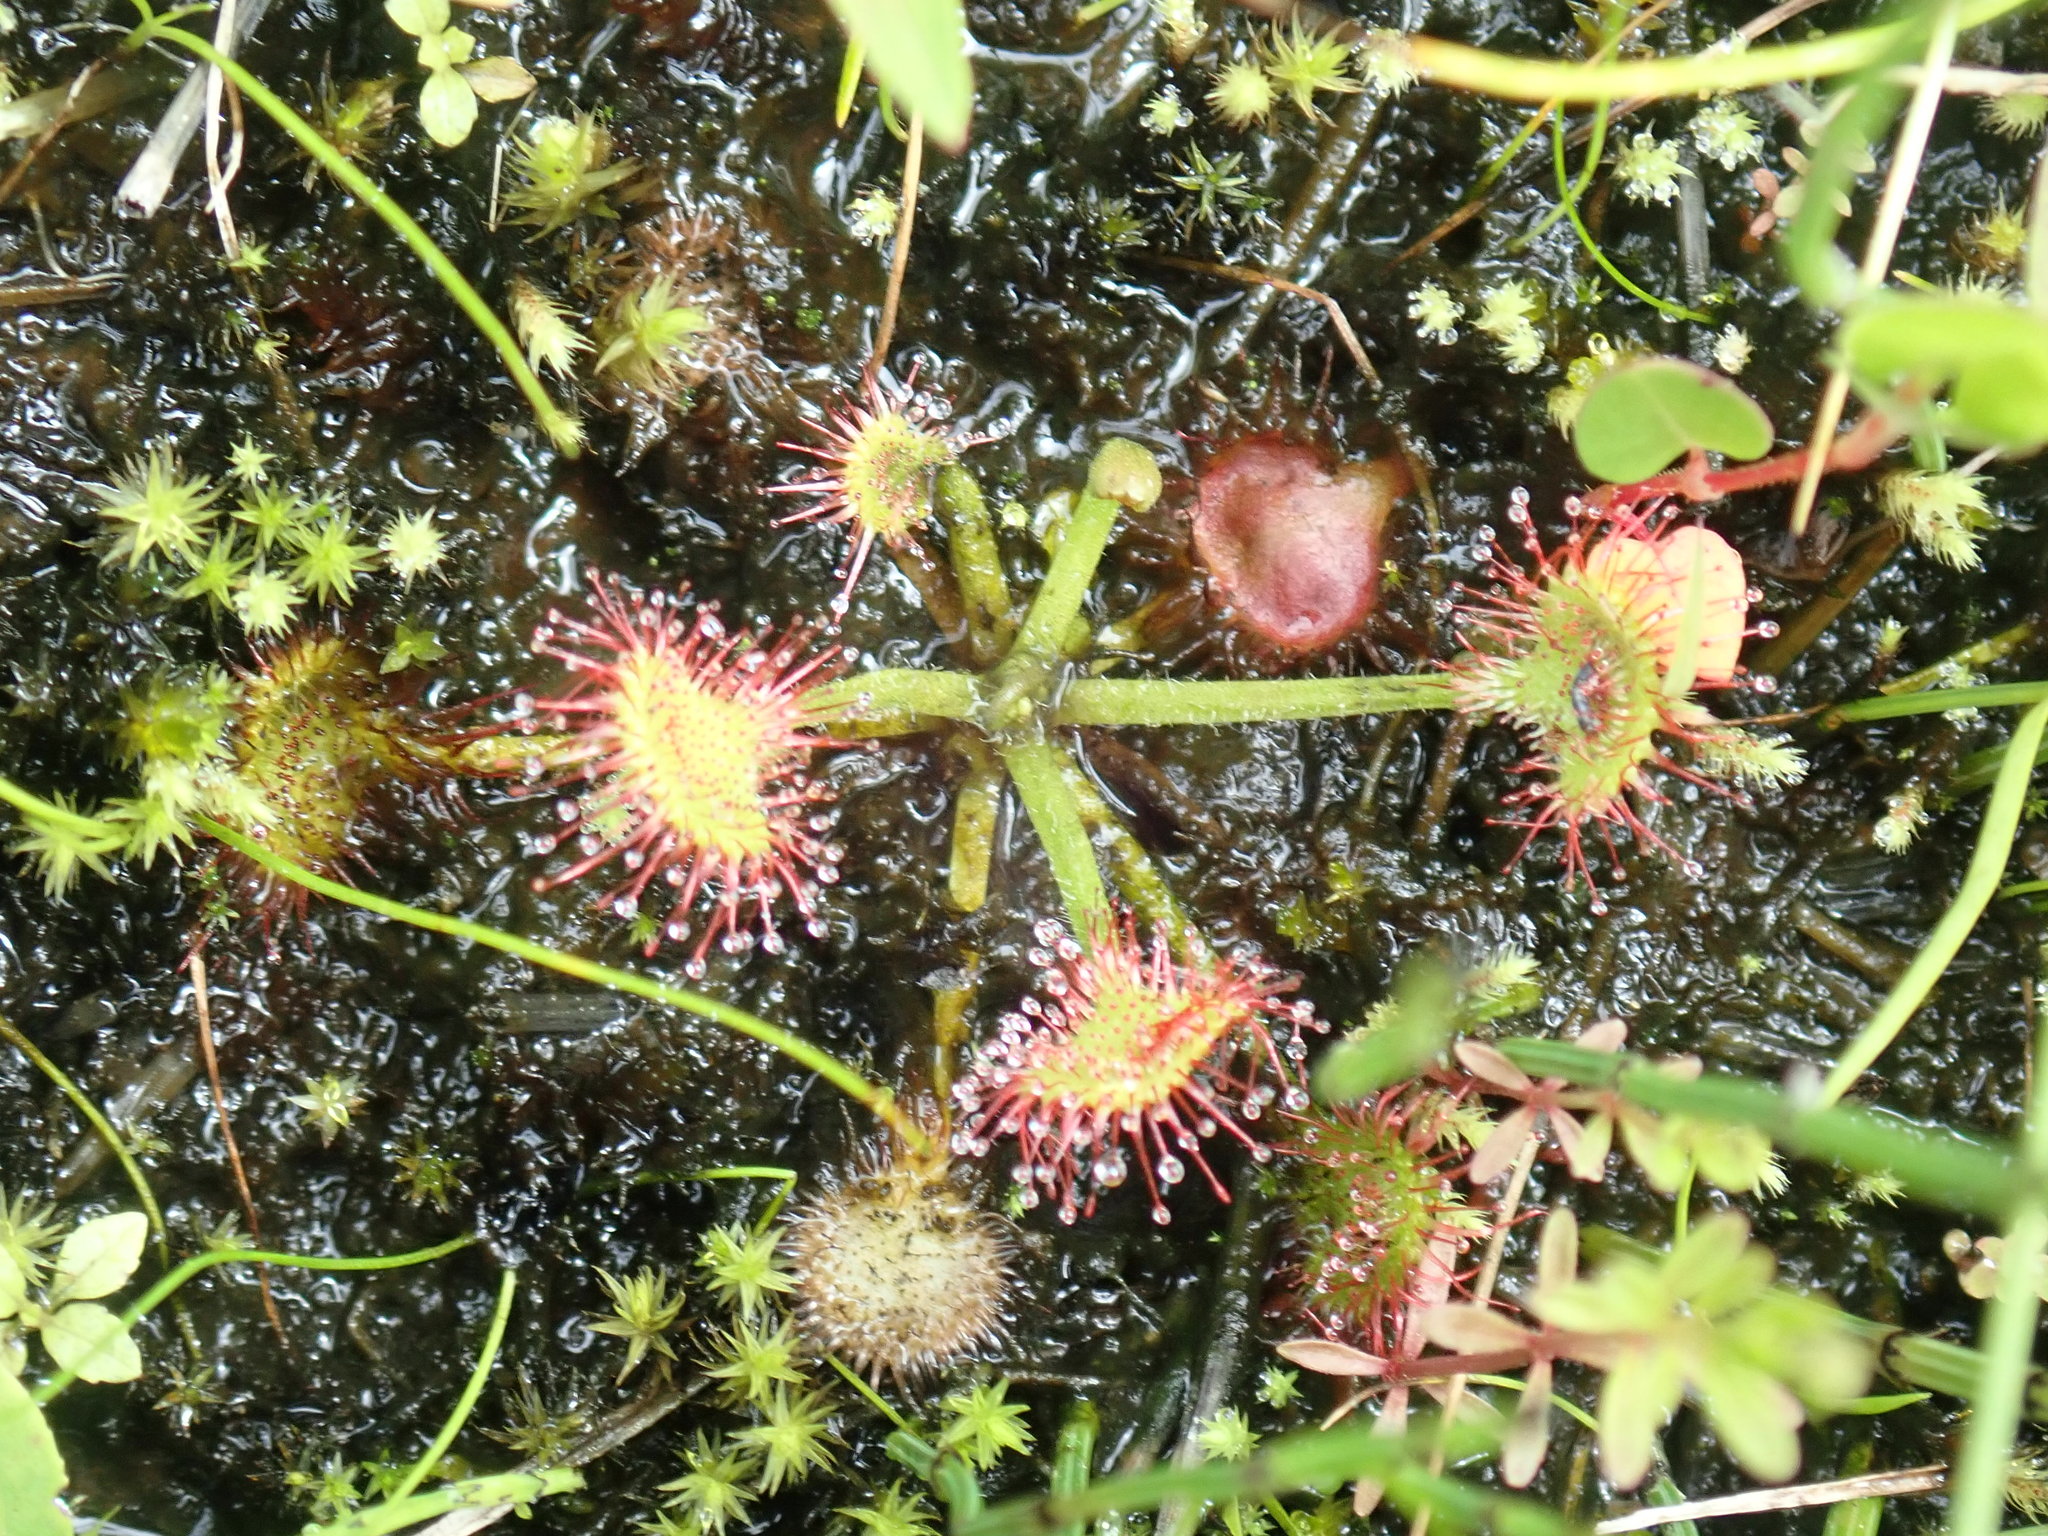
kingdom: Plantae
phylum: Tracheophyta
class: Magnoliopsida
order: Caryophyllales
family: Droseraceae
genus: Drosera
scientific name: Drosera rotundifolia
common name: Round-leaved sundew
